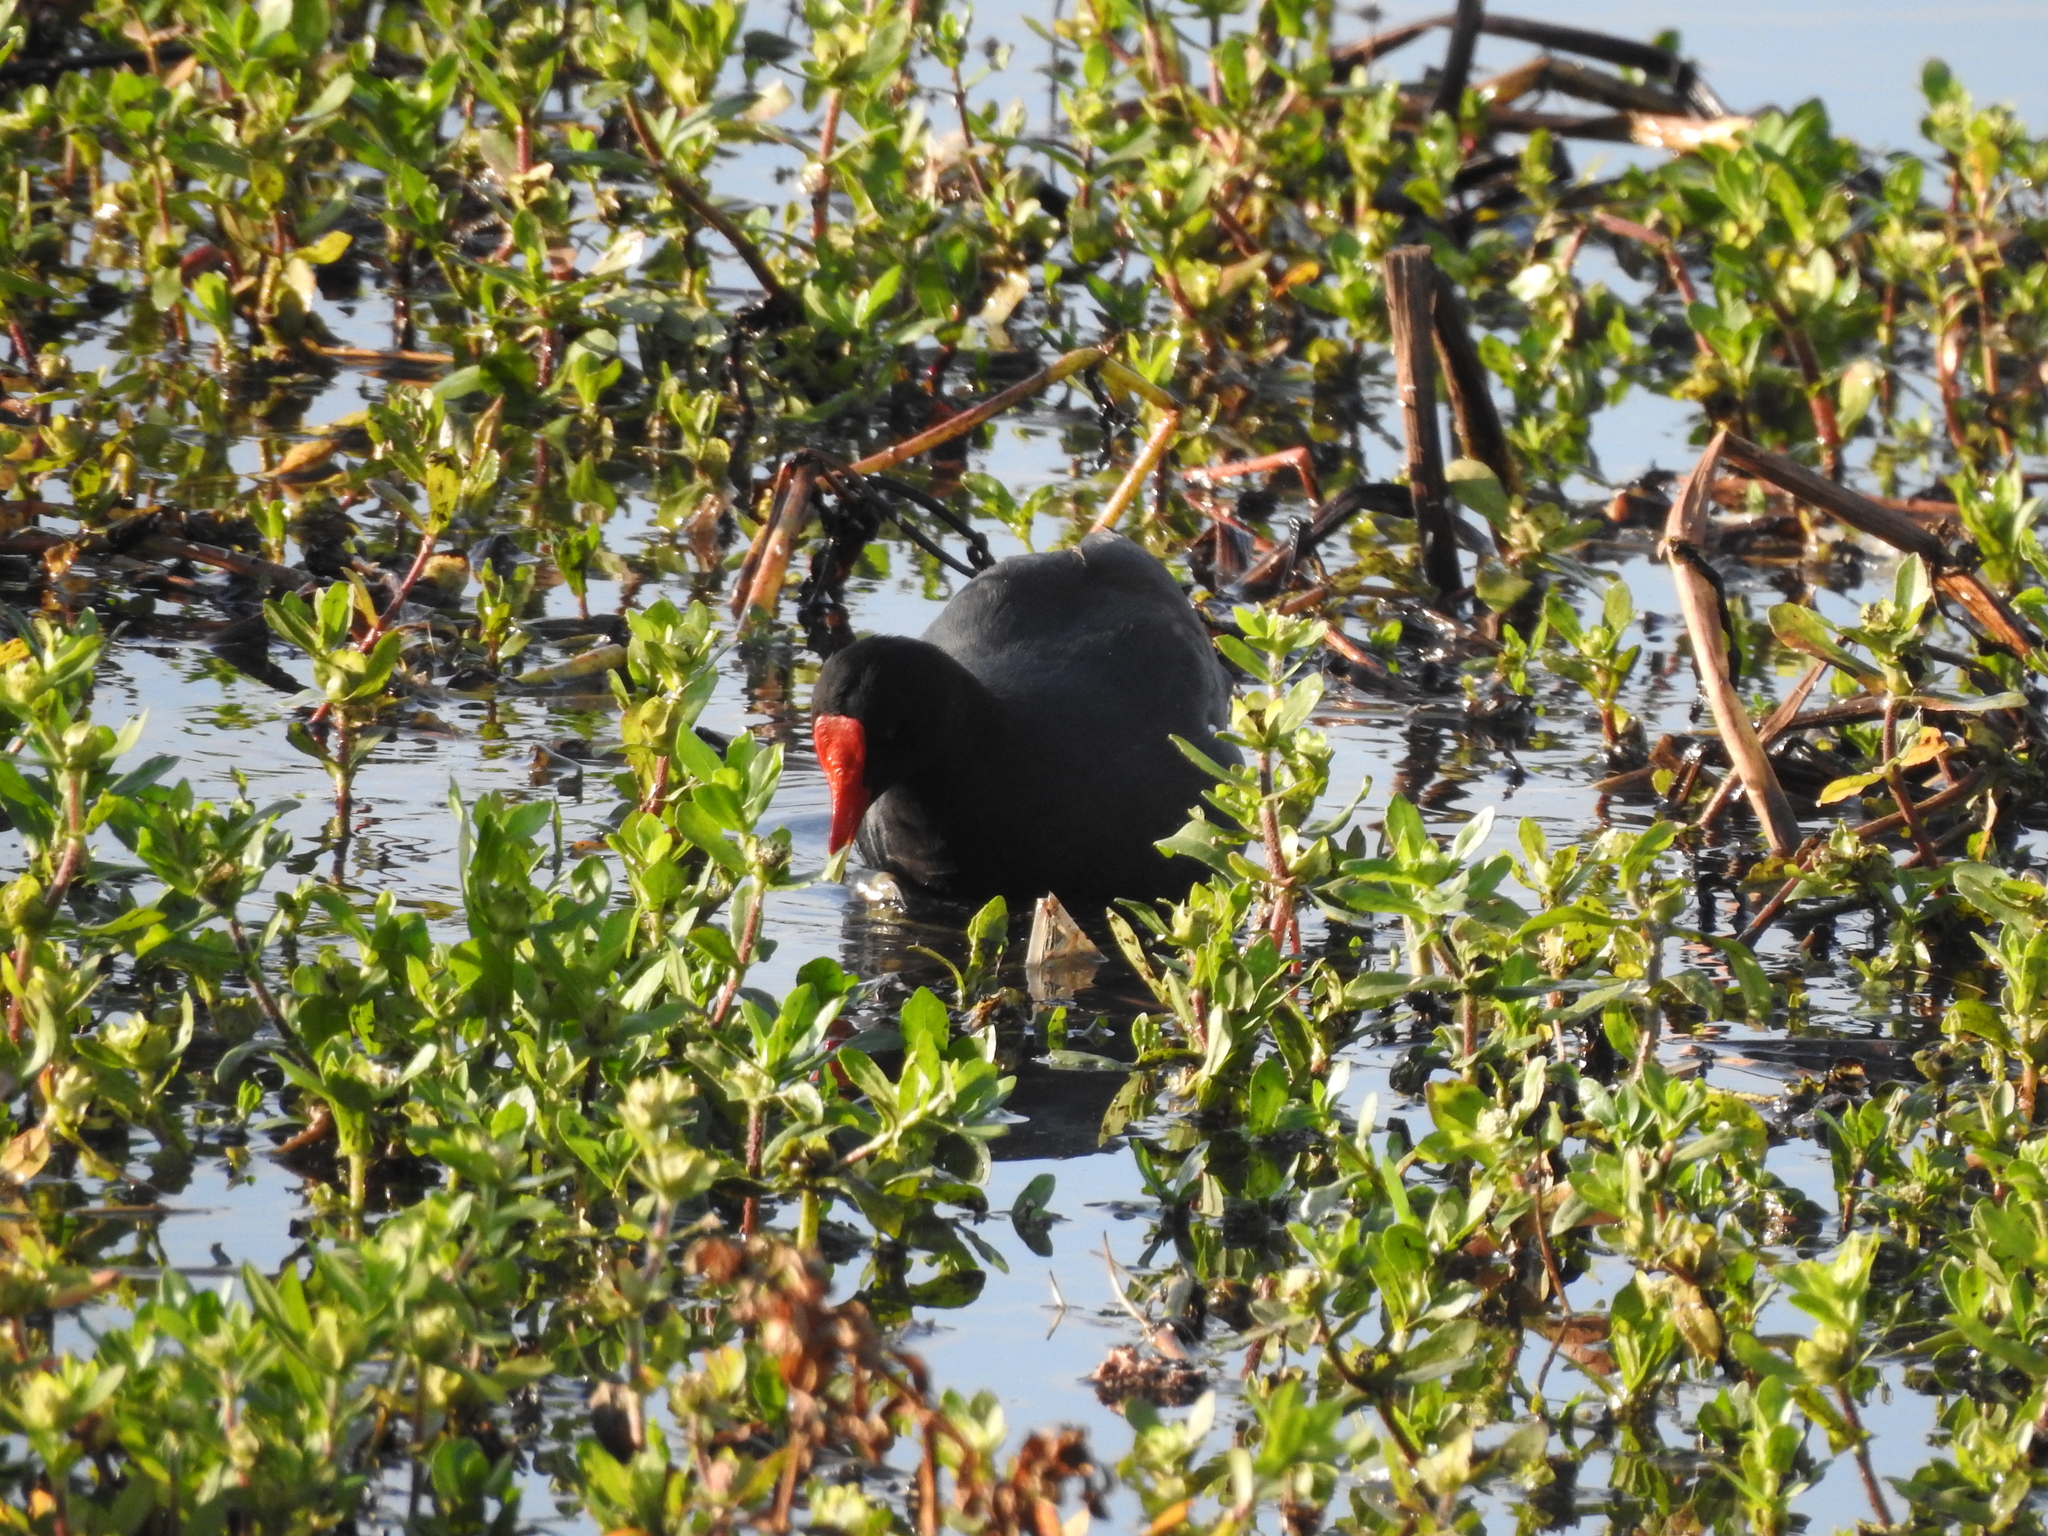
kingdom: Animalia
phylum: Chordata
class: Aves
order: Gruiformes
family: Rallidae
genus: Gallinula
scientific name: Gallinula chloropus
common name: Common moorhen
